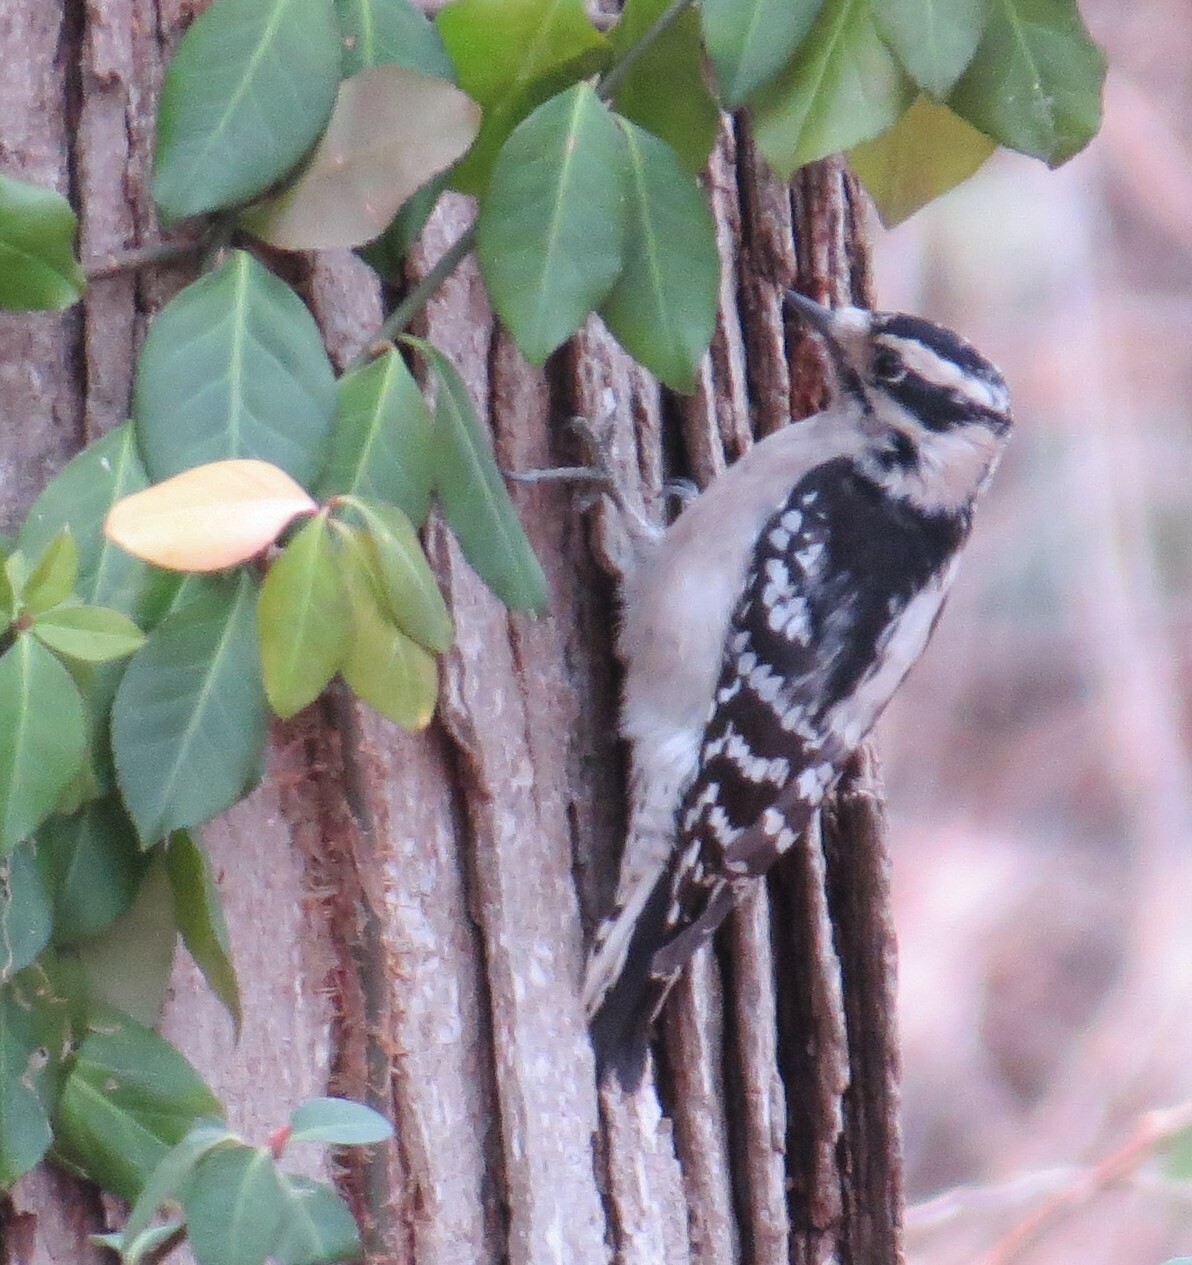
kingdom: Animalia
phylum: Chordata
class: Aves
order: Piciformes
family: Picidae
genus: Dryobates
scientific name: Dryobates pubescens
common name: Downy woodpecker
